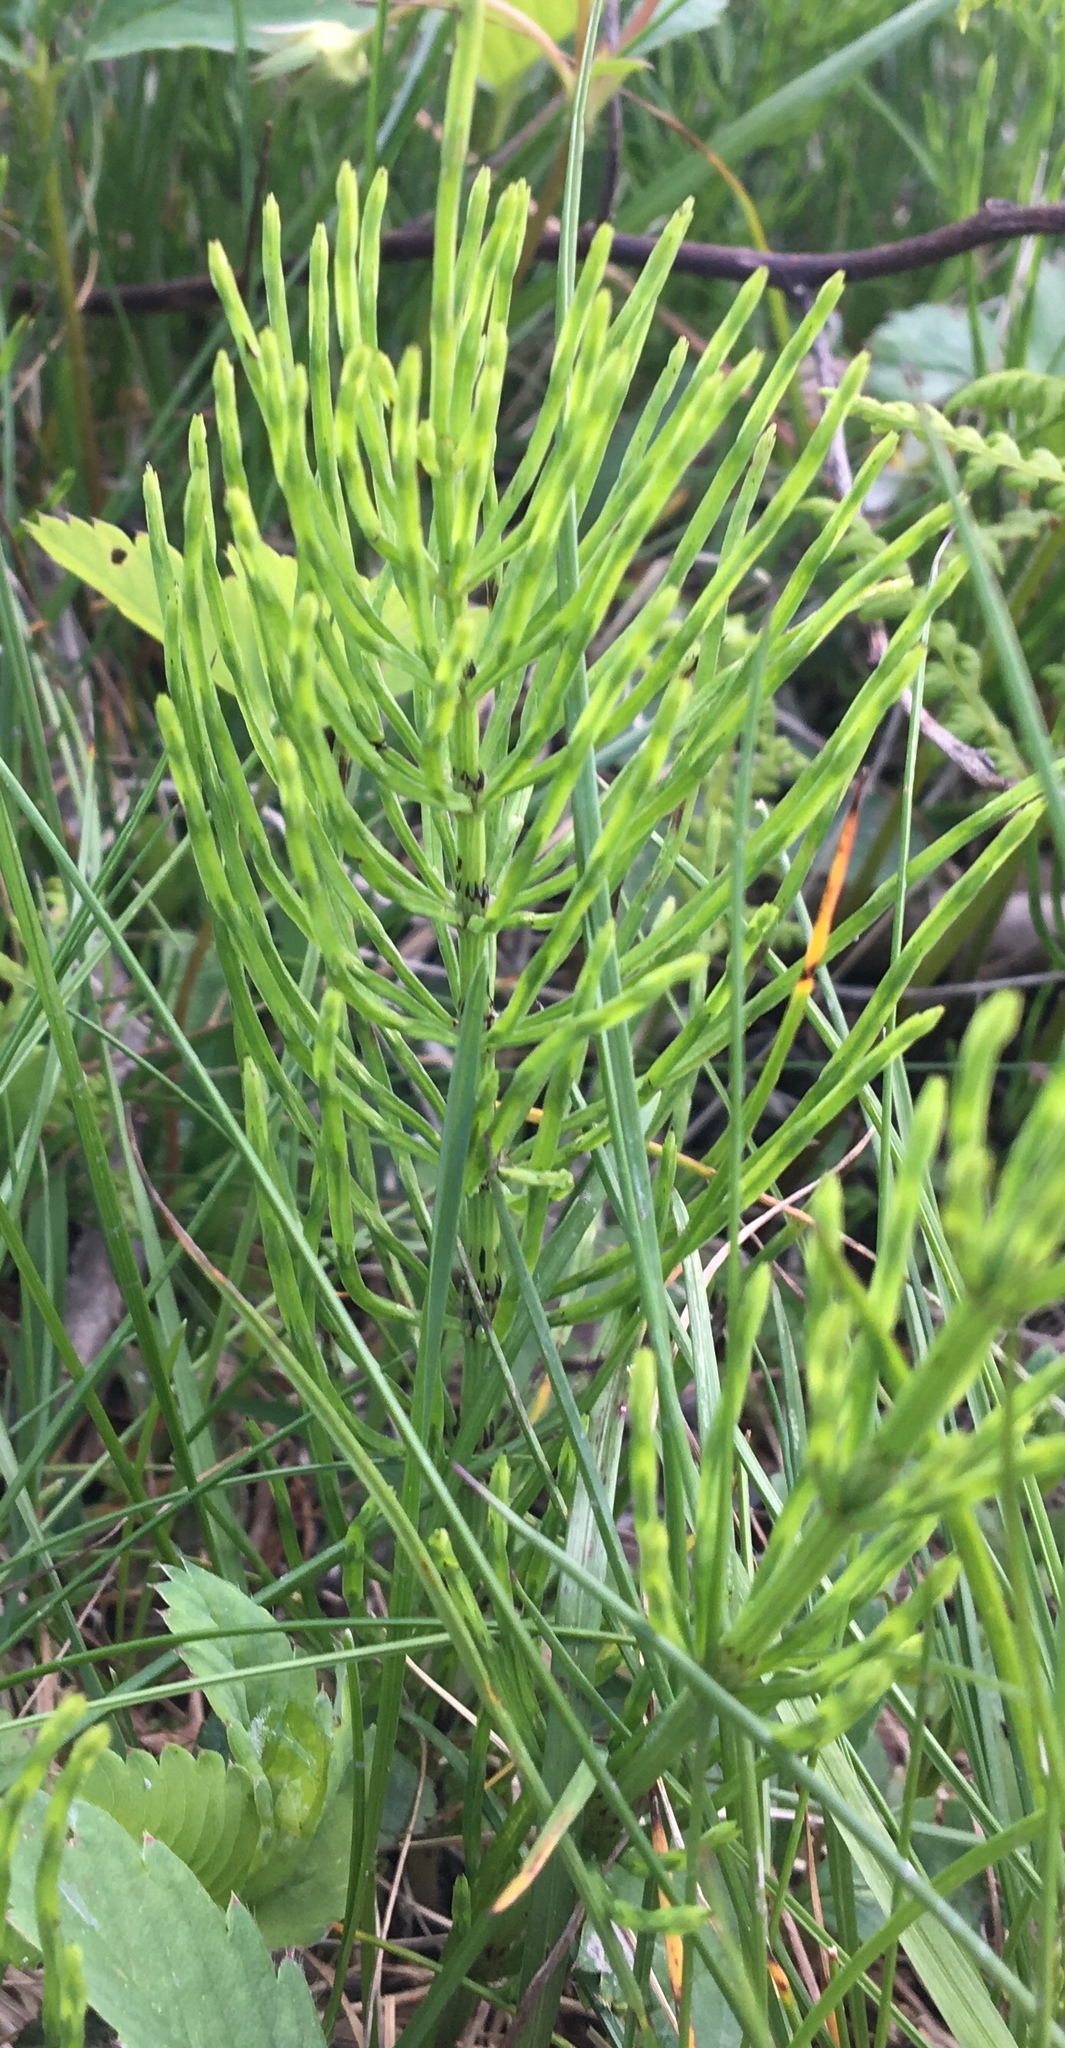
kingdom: Plantae
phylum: Tracheophyta
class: Polypodiopsida
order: Equisetales
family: Equisetaceae
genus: Equisetum
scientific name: Equisetum arvense
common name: Field horsetail
